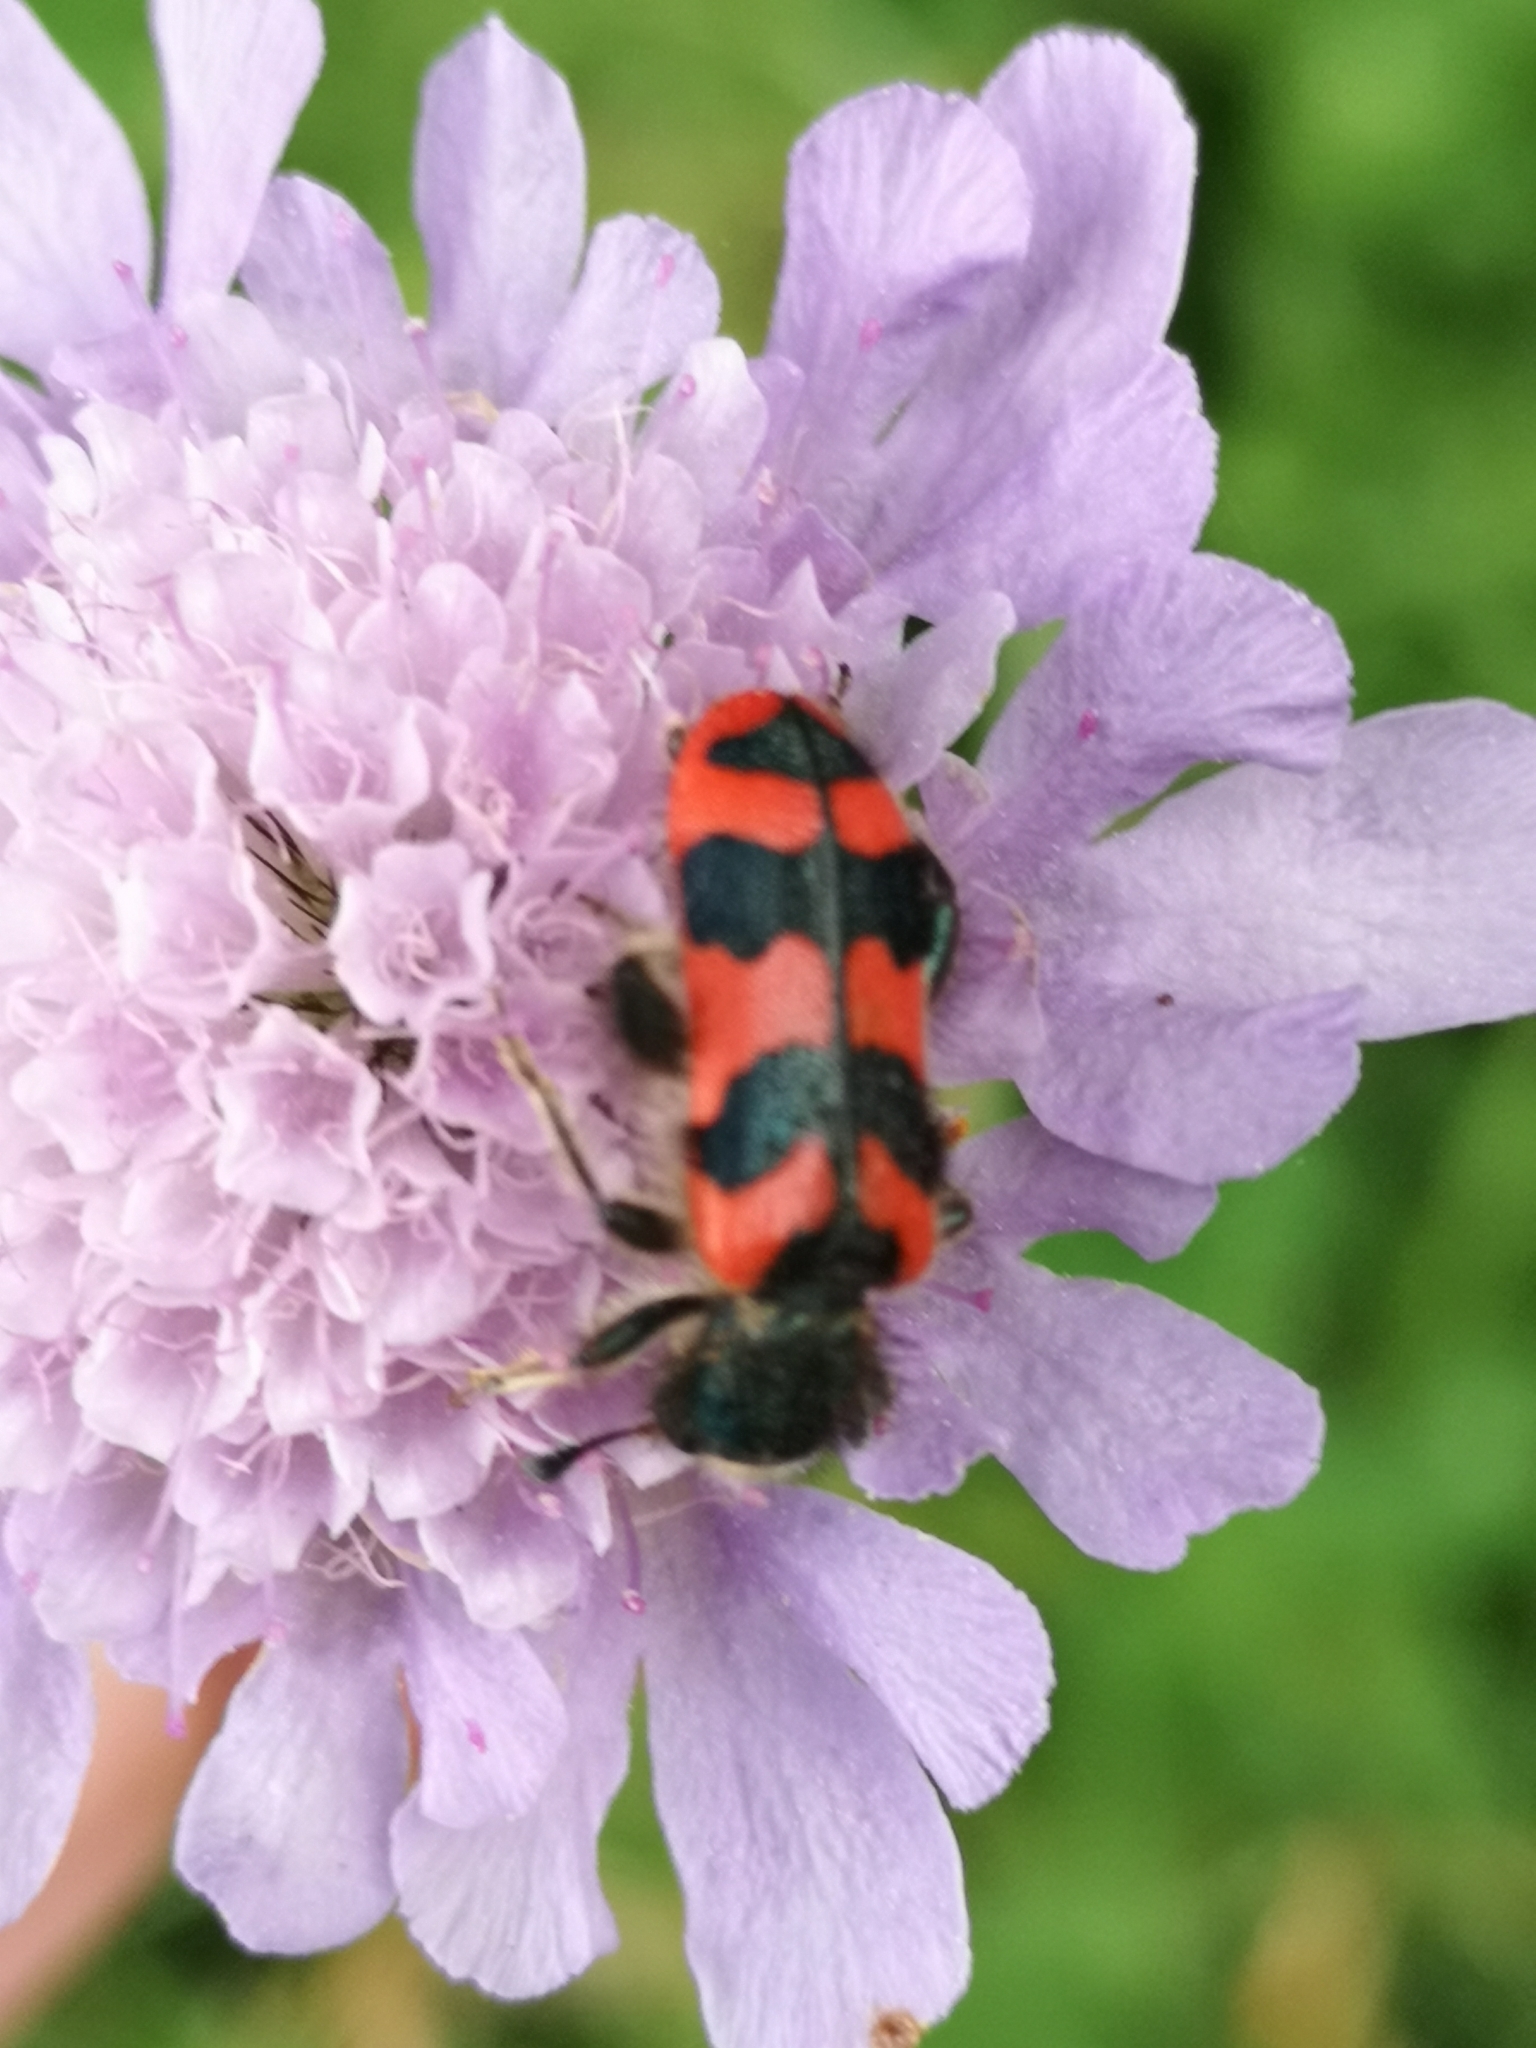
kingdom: Animalia
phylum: Arthropoda
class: Insecta
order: Coleoptera
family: Cleridae
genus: Trichodes
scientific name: Trichodes alvearius
